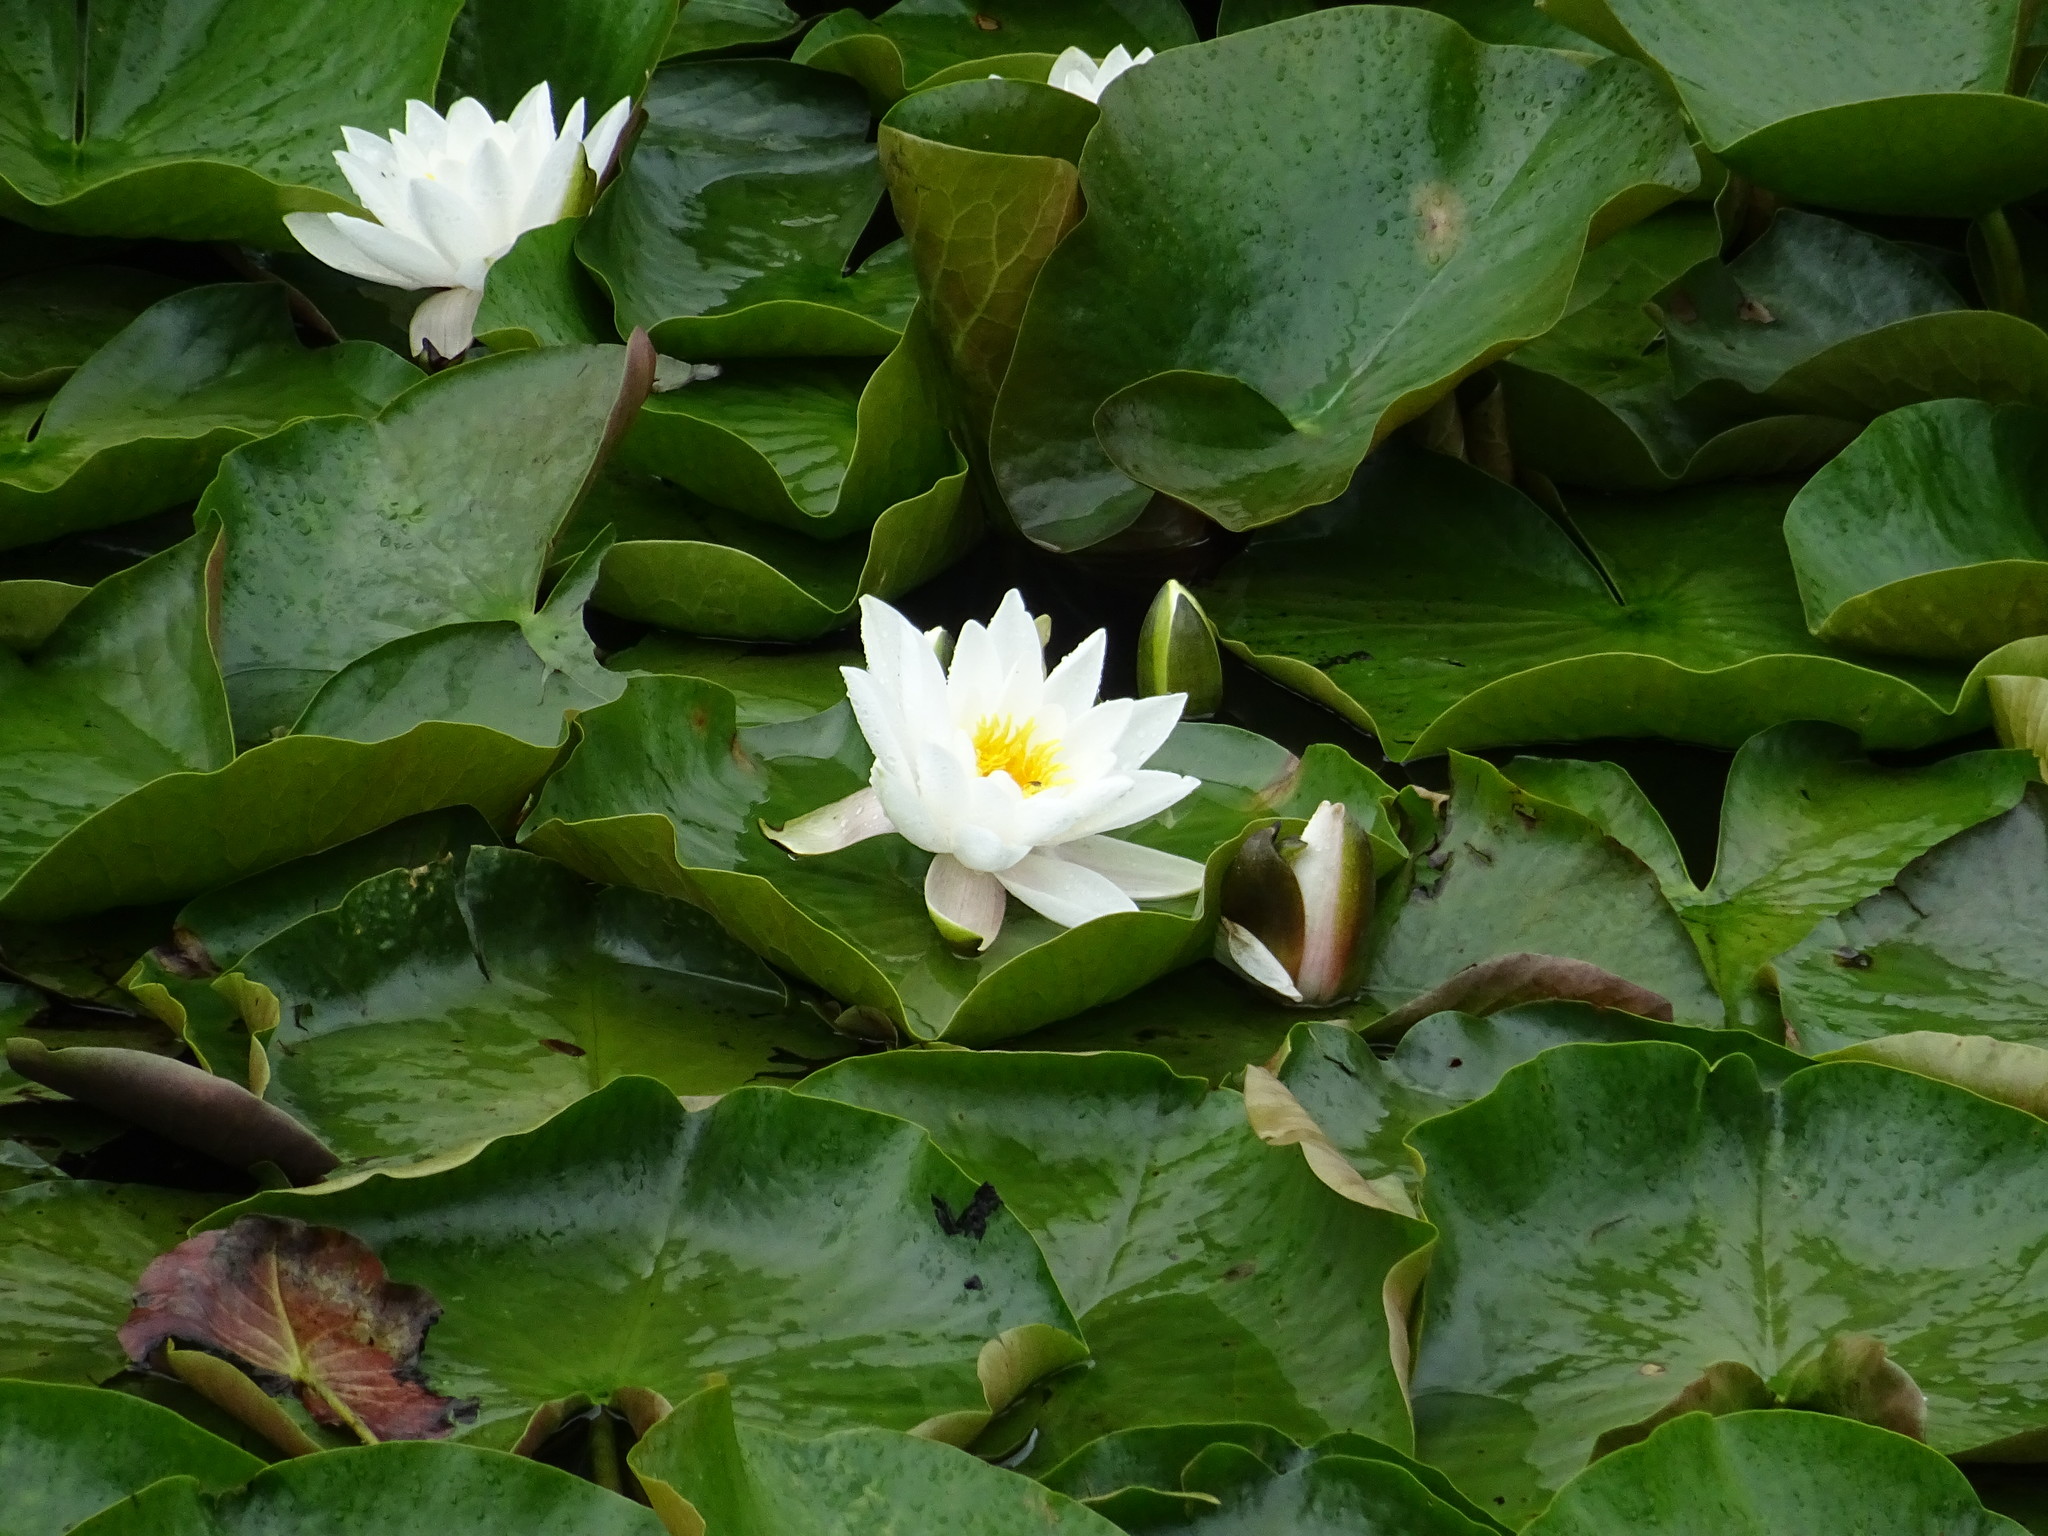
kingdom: Plantae
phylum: Tracheophyta
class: Magnoliopsida
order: Nymphaeales
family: Nymphaeaceae
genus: Nymphaea
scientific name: Nymphaea alba
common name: White water-lily
